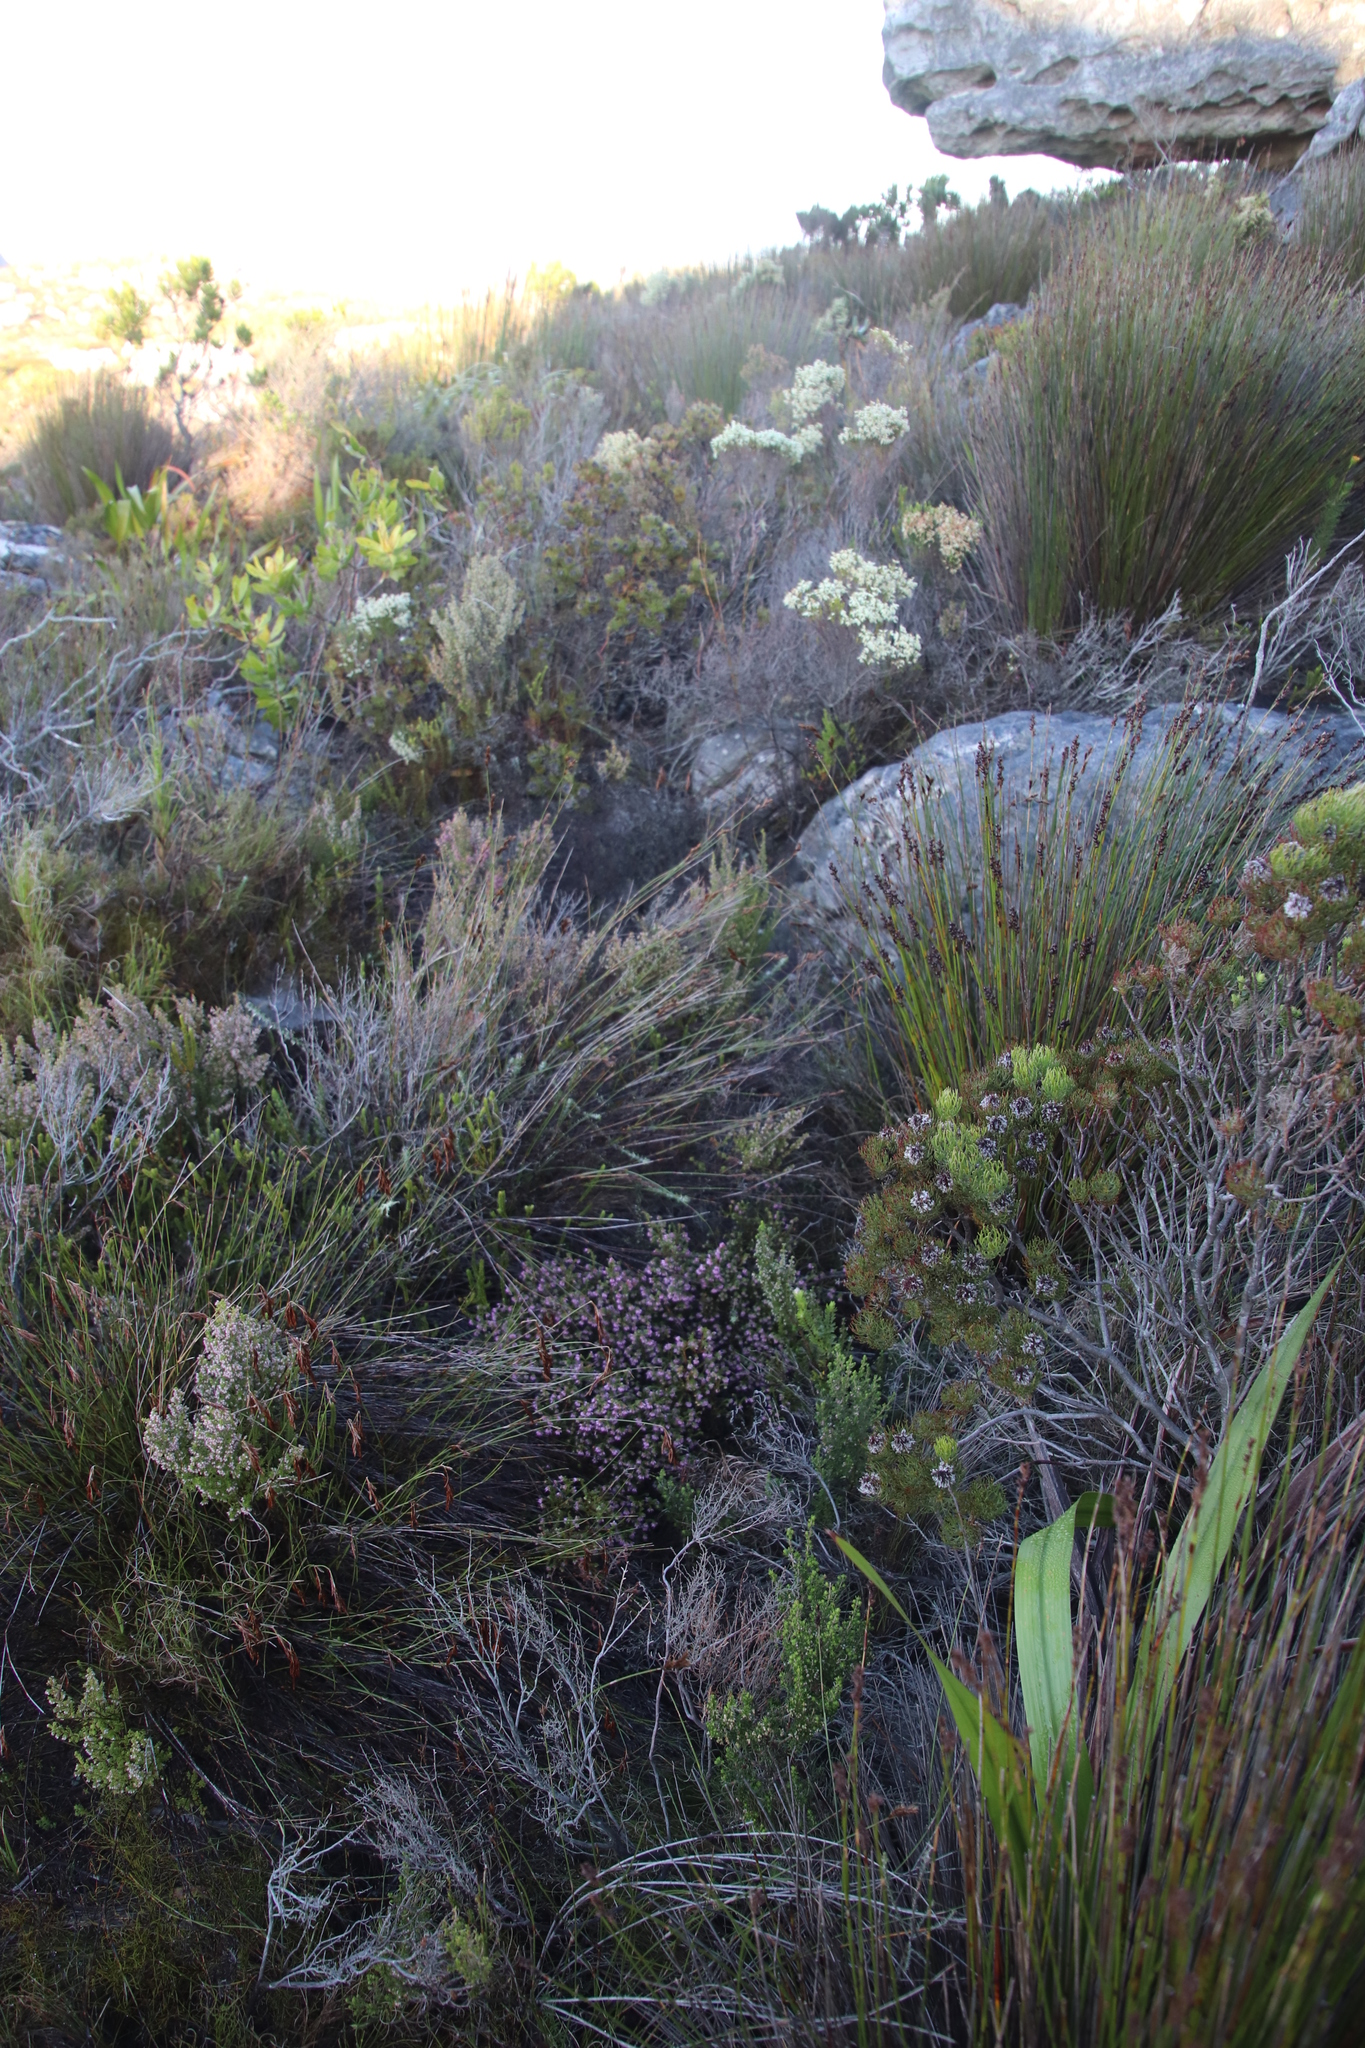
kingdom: Plantae
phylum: Tracheophyta
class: Magnoliopsida
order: Ericales
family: Ericaceae
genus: Erica
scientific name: Erica glabella
